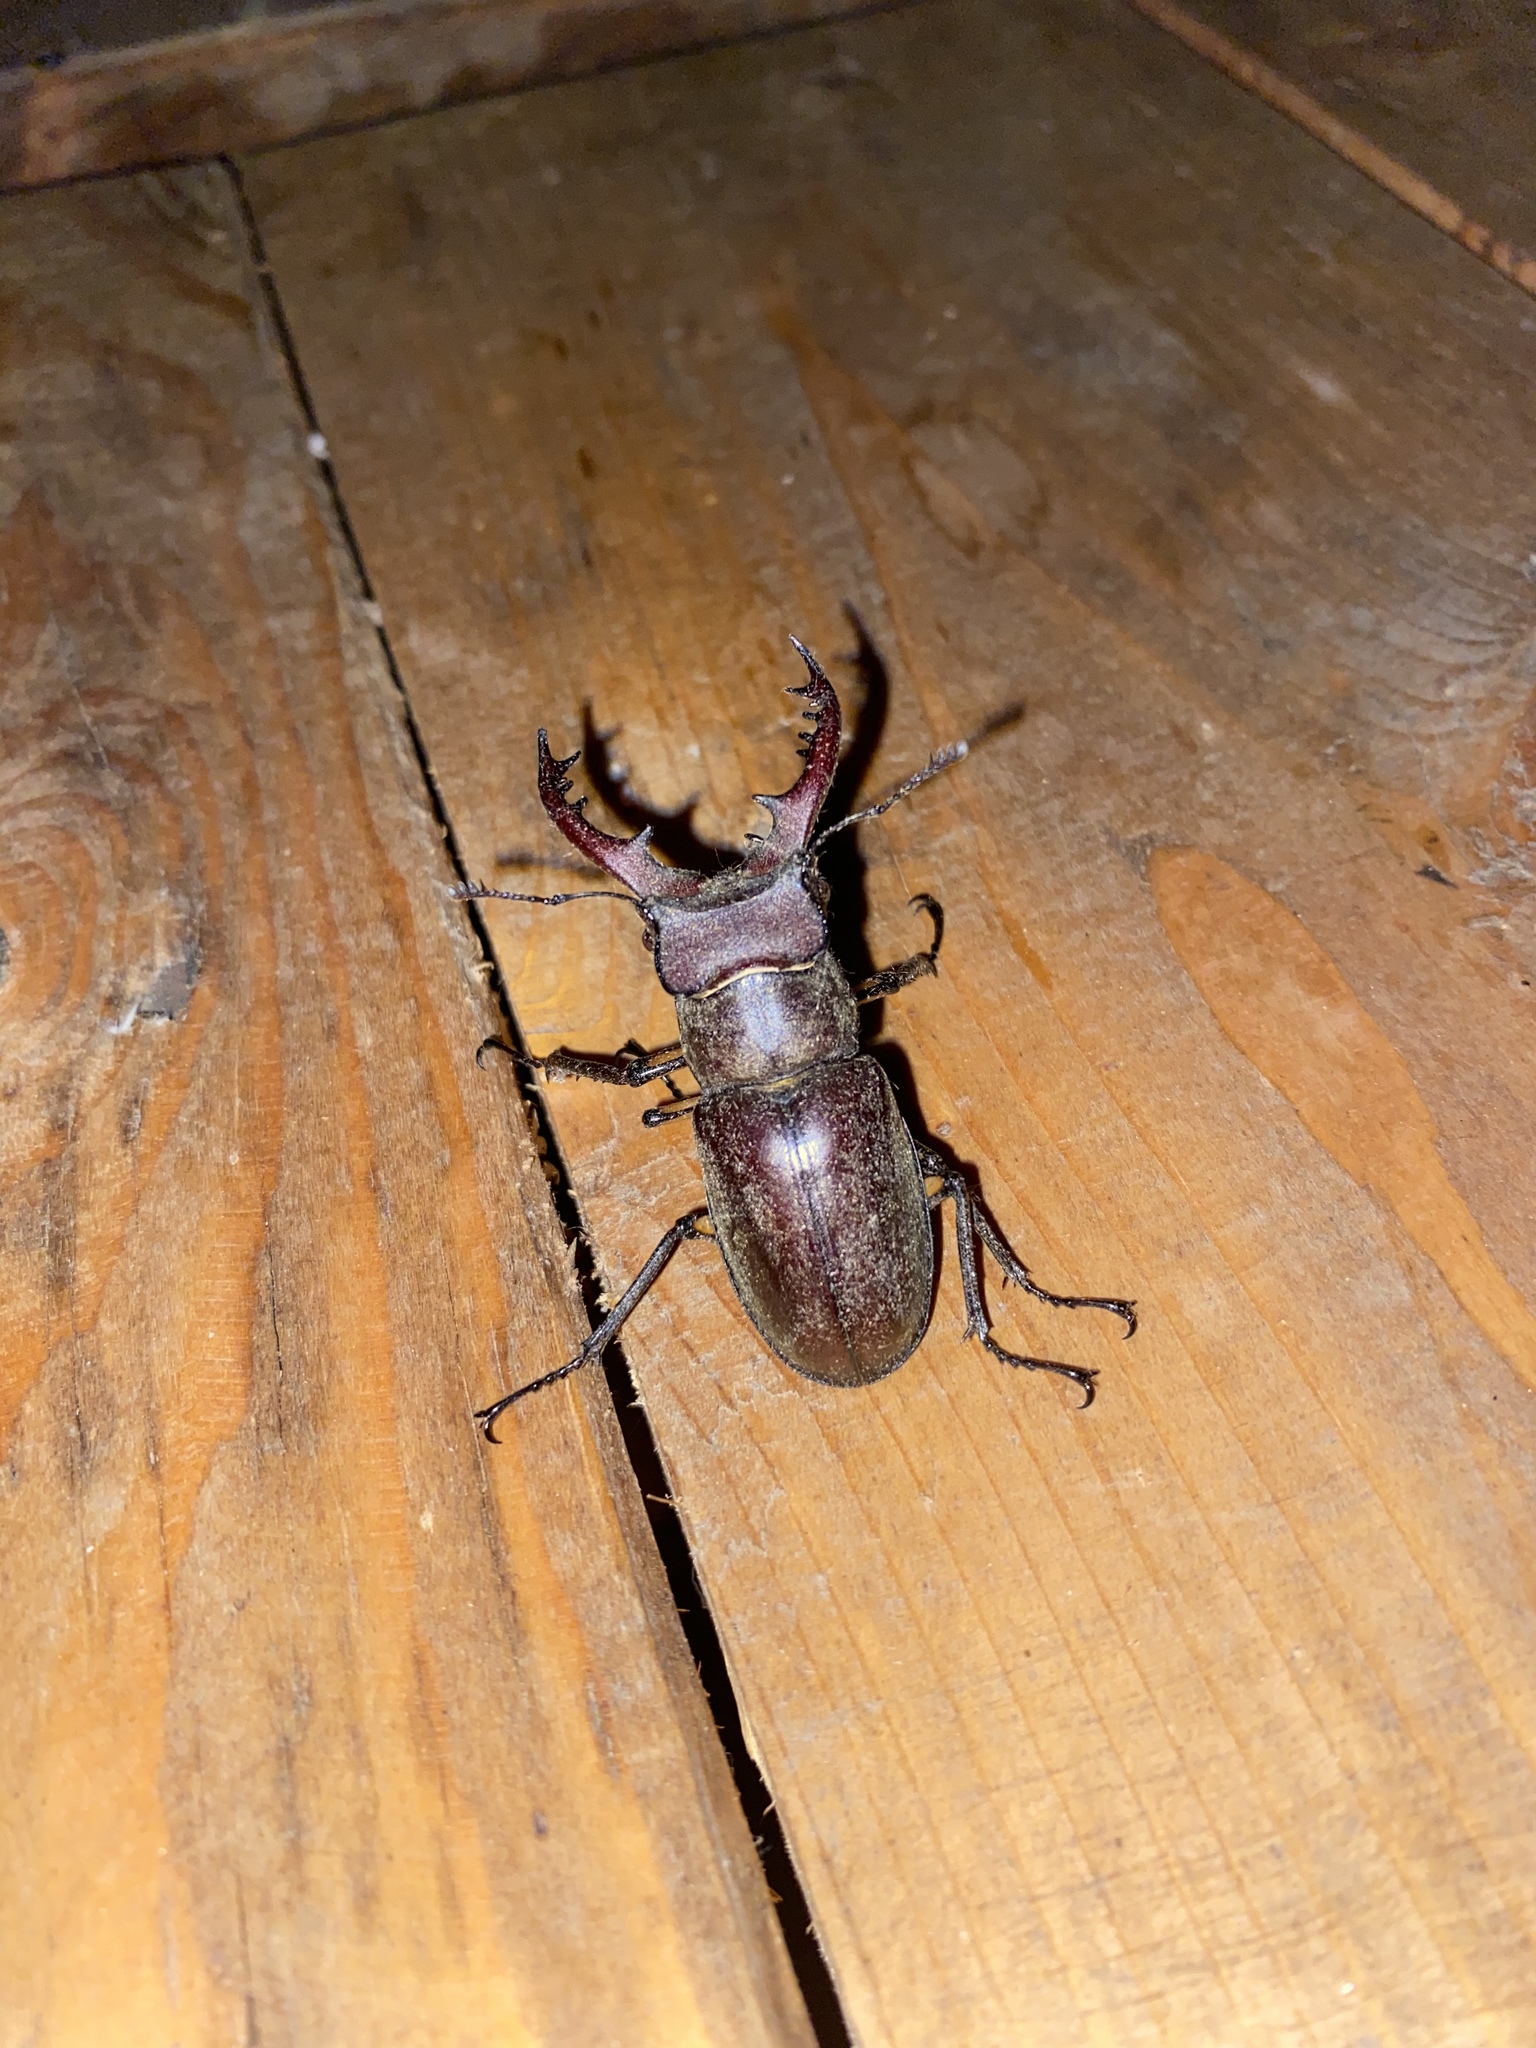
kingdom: Animalia
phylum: Arthropoda
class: Insecta
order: Coleoptera
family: Lucanidae
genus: Lucanus
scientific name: Lucanus maculifemoratus
